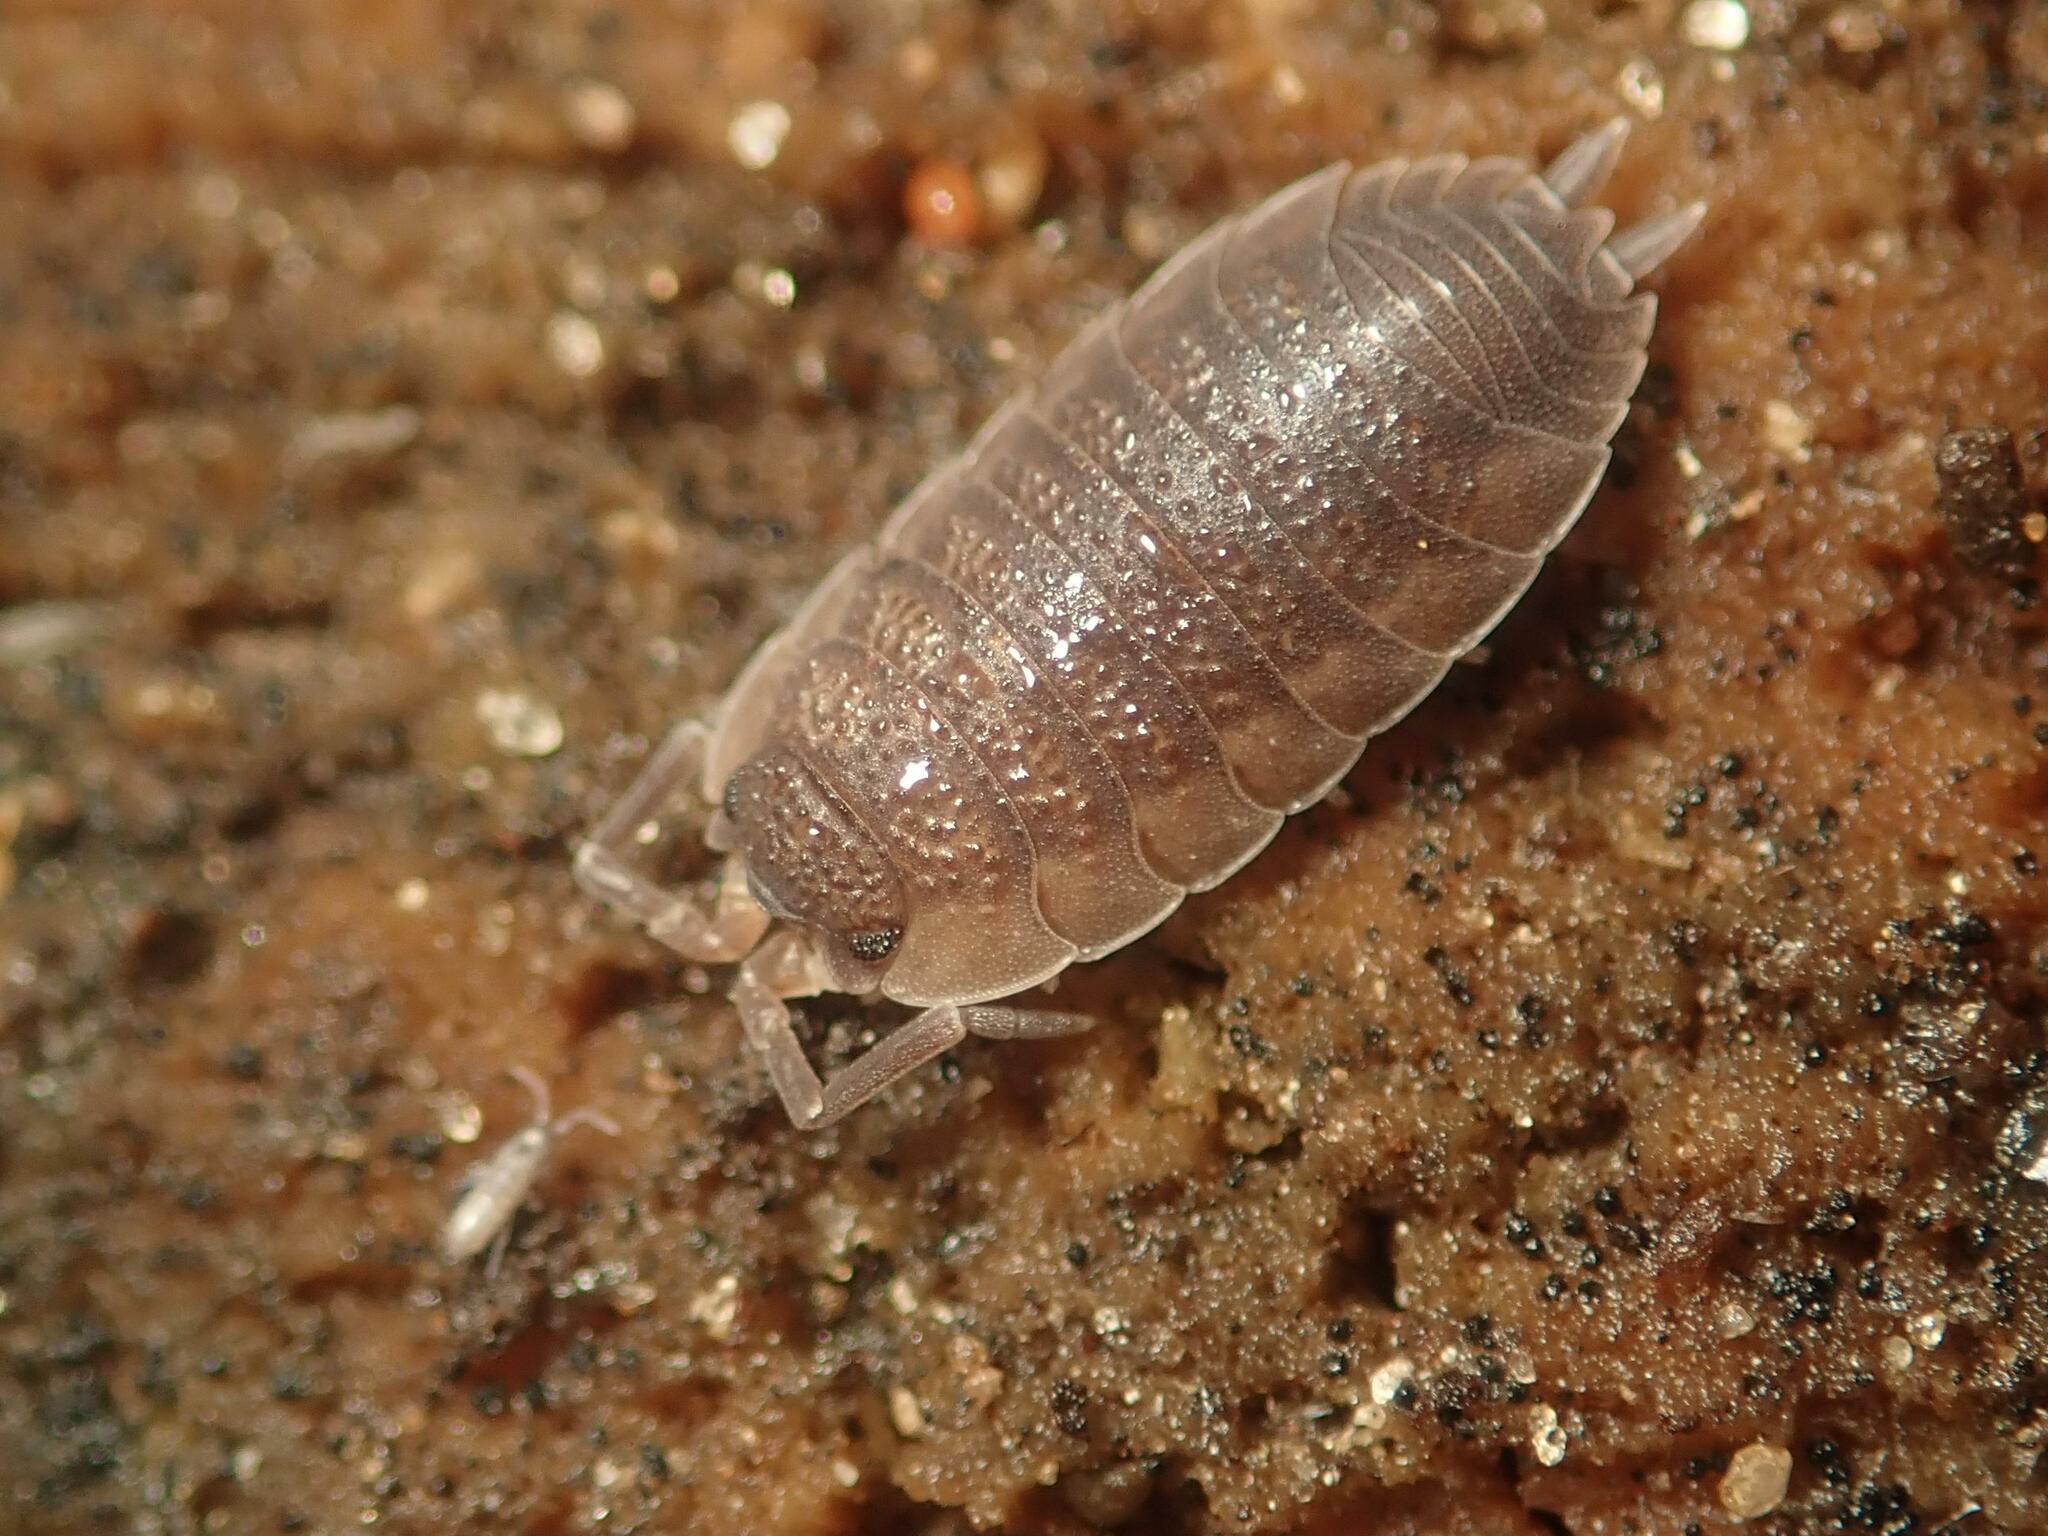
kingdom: Animalia
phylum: Arthropoda
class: Malacostraca
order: Isopoda
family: Porcellionidae
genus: Porcellio
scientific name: Porcellio scaber
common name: Common rough woodlouse
